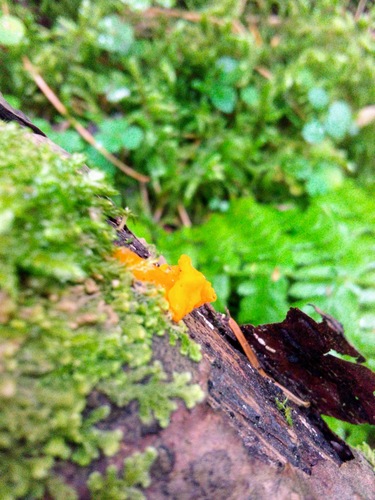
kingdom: Fungi
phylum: Basidiomycota
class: Dacrymycetes
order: Dacrymycetales
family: Dacrymycetaceae
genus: Dacrymyces
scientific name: Dacrymyces chrysospermus
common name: Orange jelly spot
